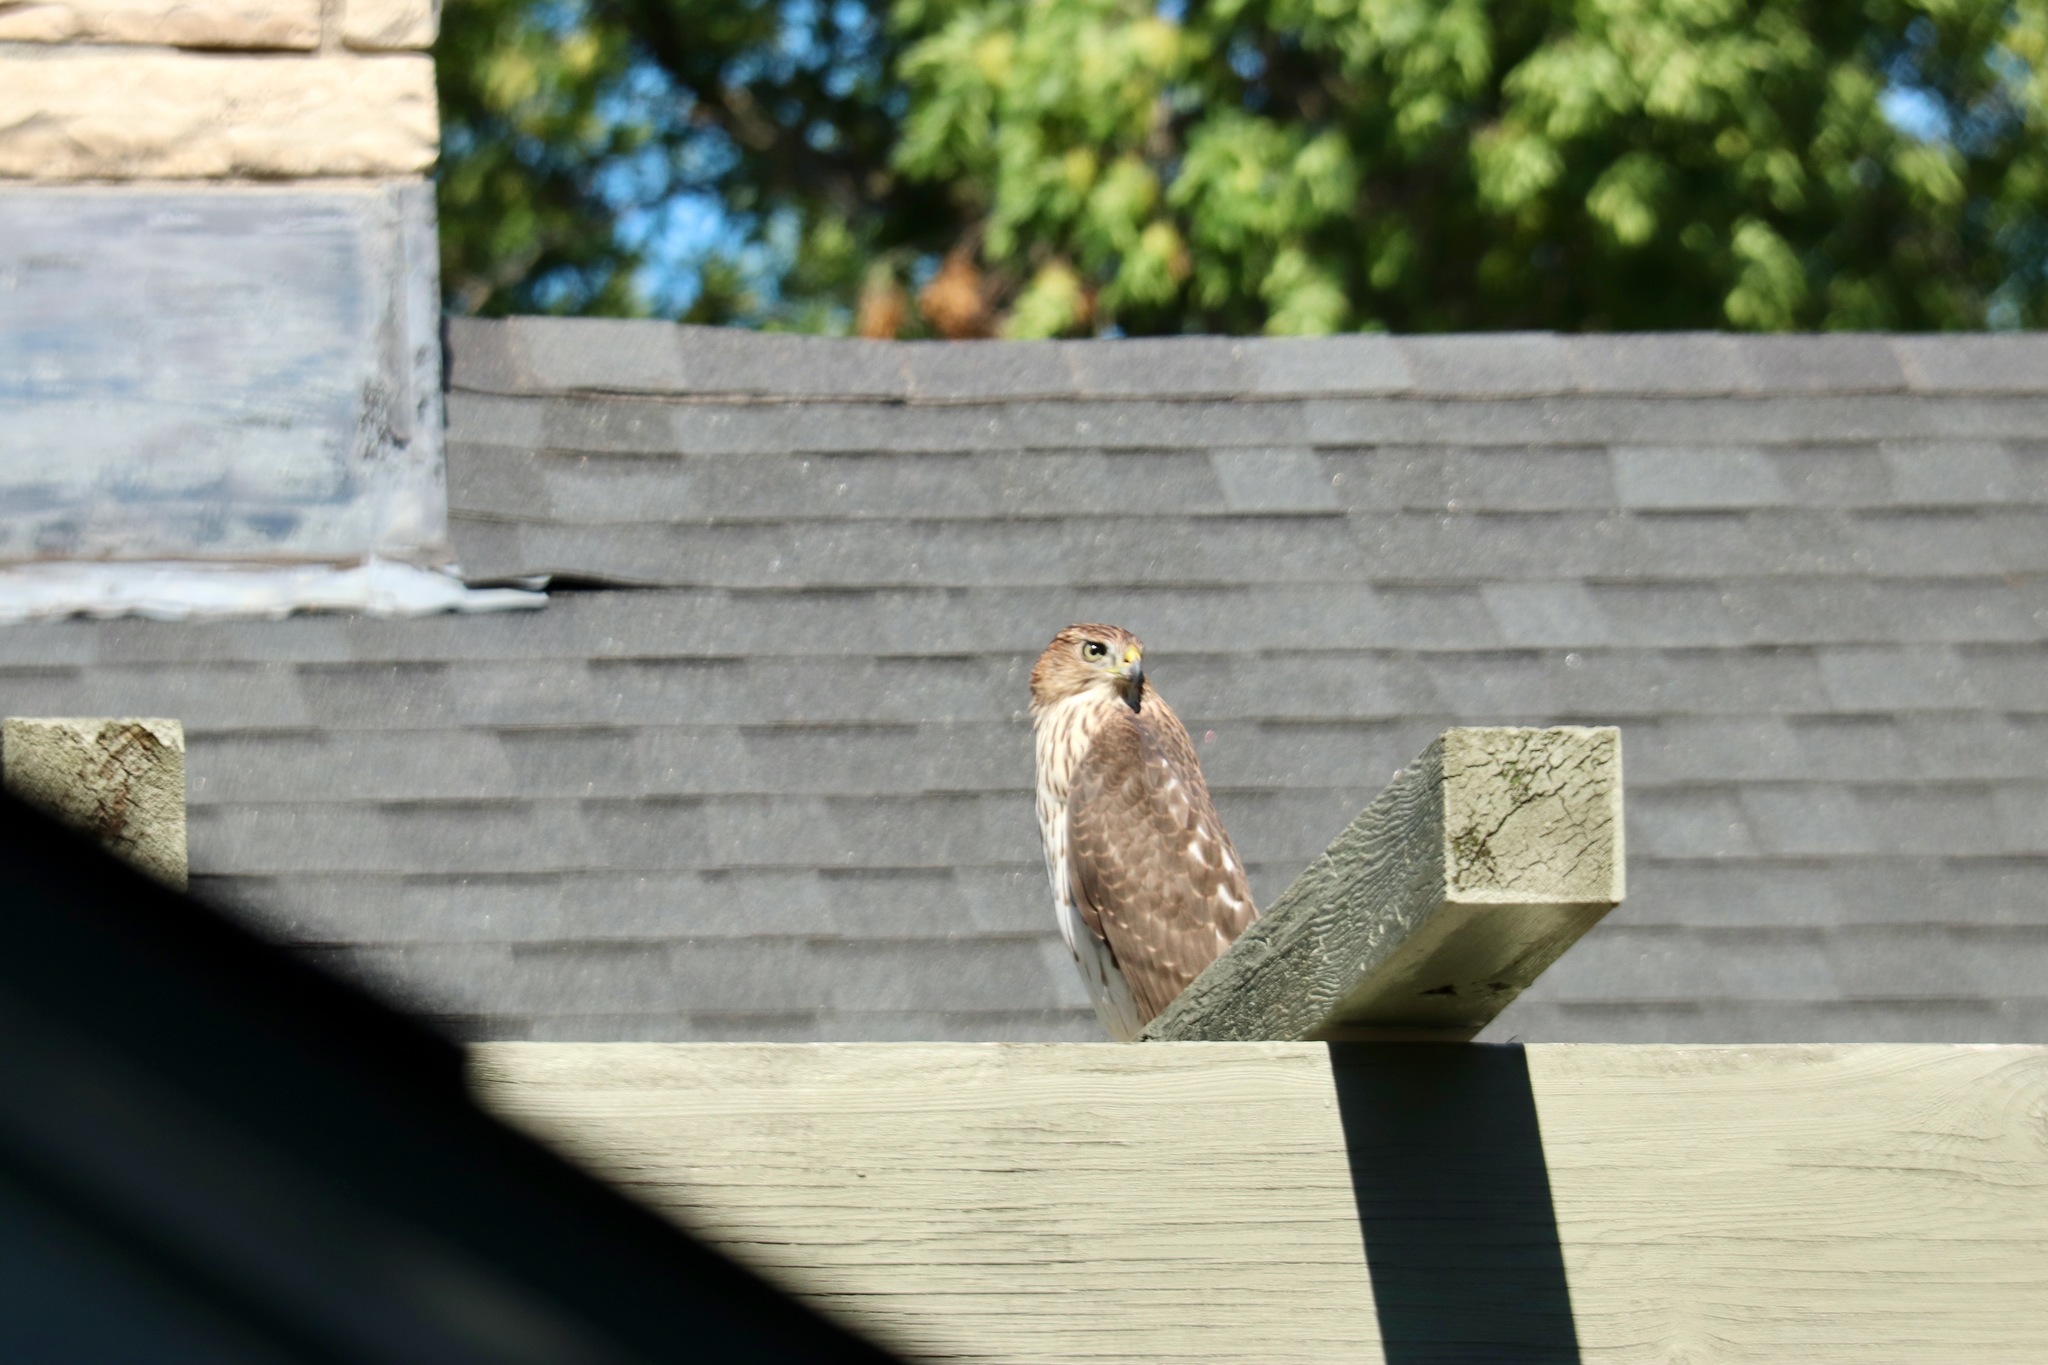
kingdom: Animalia
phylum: Chordata
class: Aves
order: Accipitriformes
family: Accipitridae
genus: Accipiter
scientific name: Accipiter cooperii
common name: Cooper's hawk
